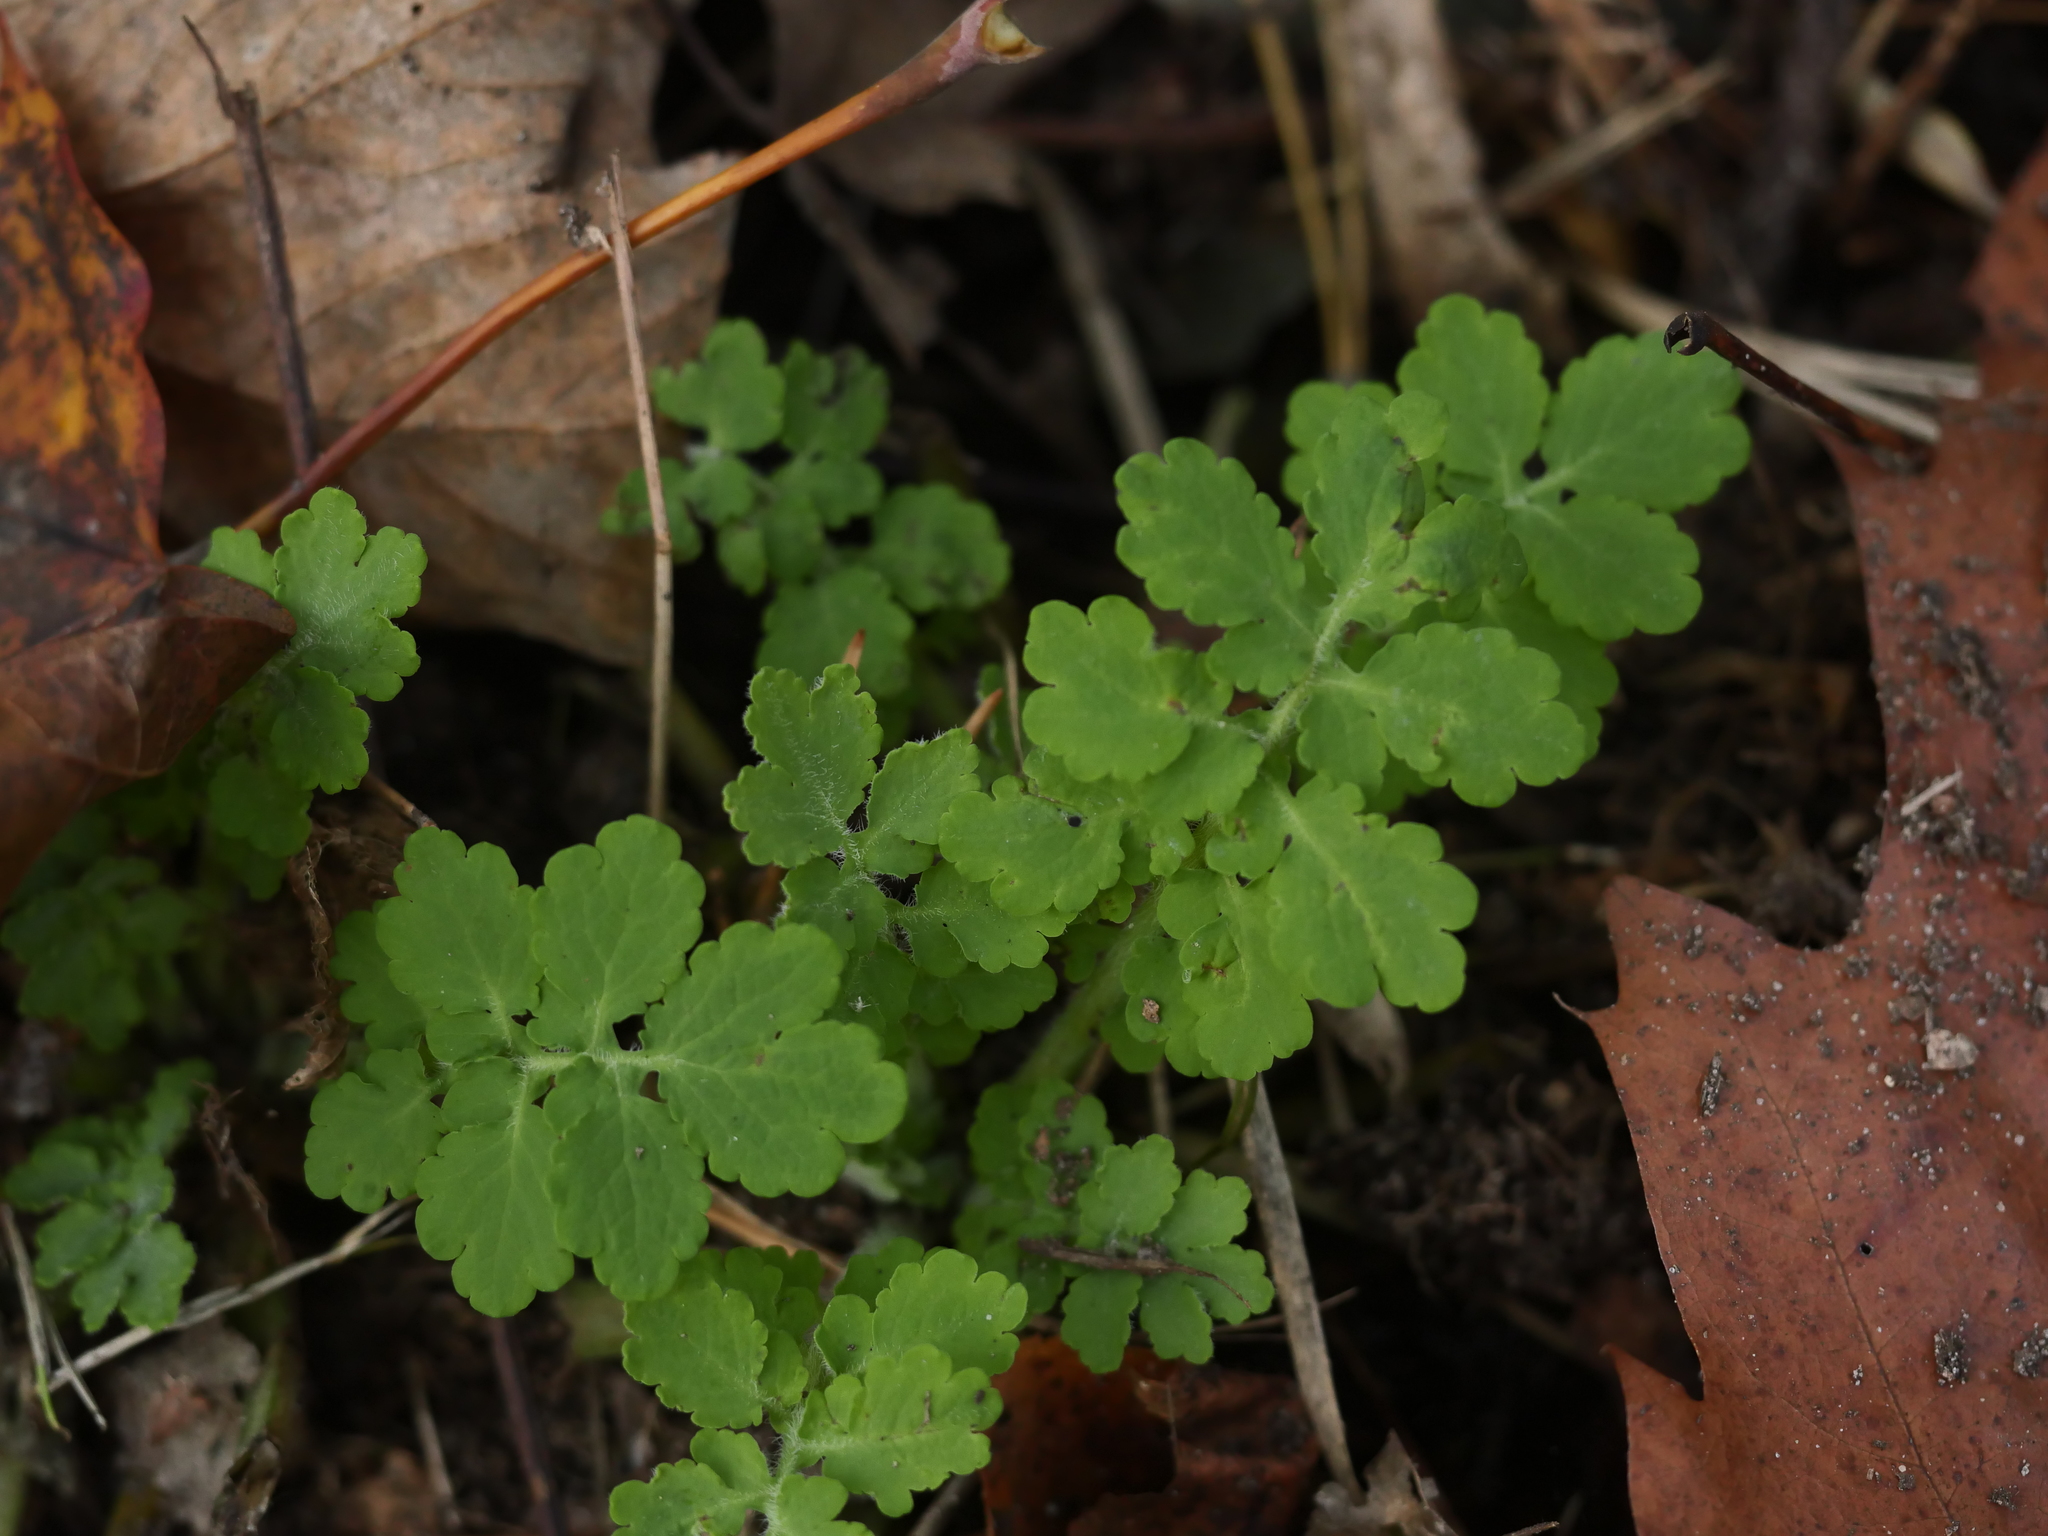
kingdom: Plantae
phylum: Tracheophyta
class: Magnoliopsida
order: Ranunculales
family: Papaveraceae
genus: Chelidonium
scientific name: Chelidonium majus
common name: Greater celandine
